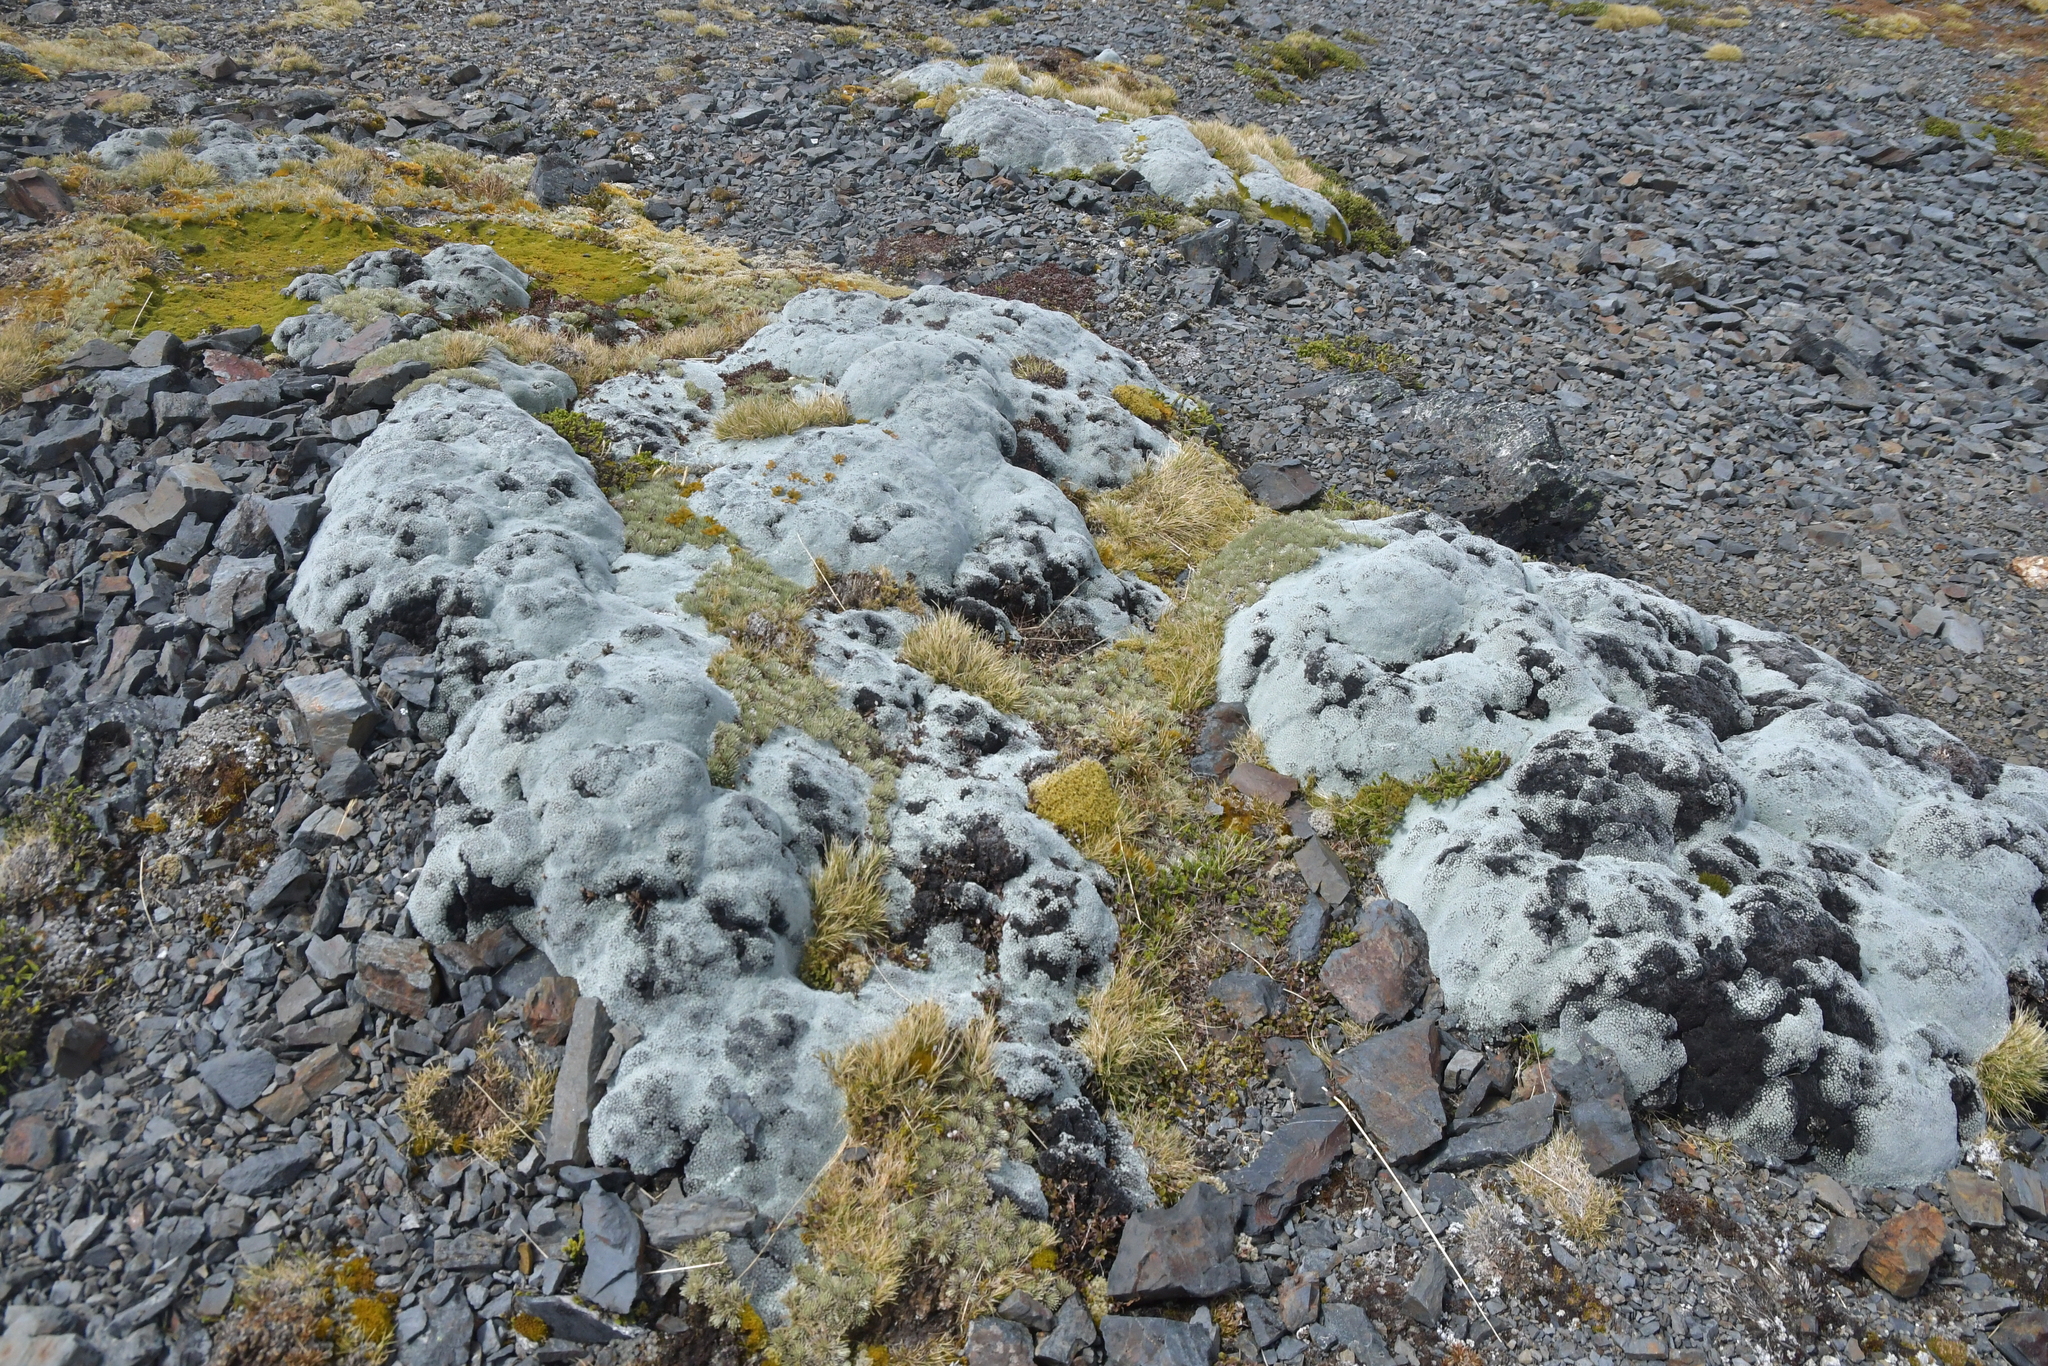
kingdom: Plantae
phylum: Tracheophyta
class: Magnoliopsida
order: Asterales
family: Asteraceae
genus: Raoulia
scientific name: Raoulia eximia
